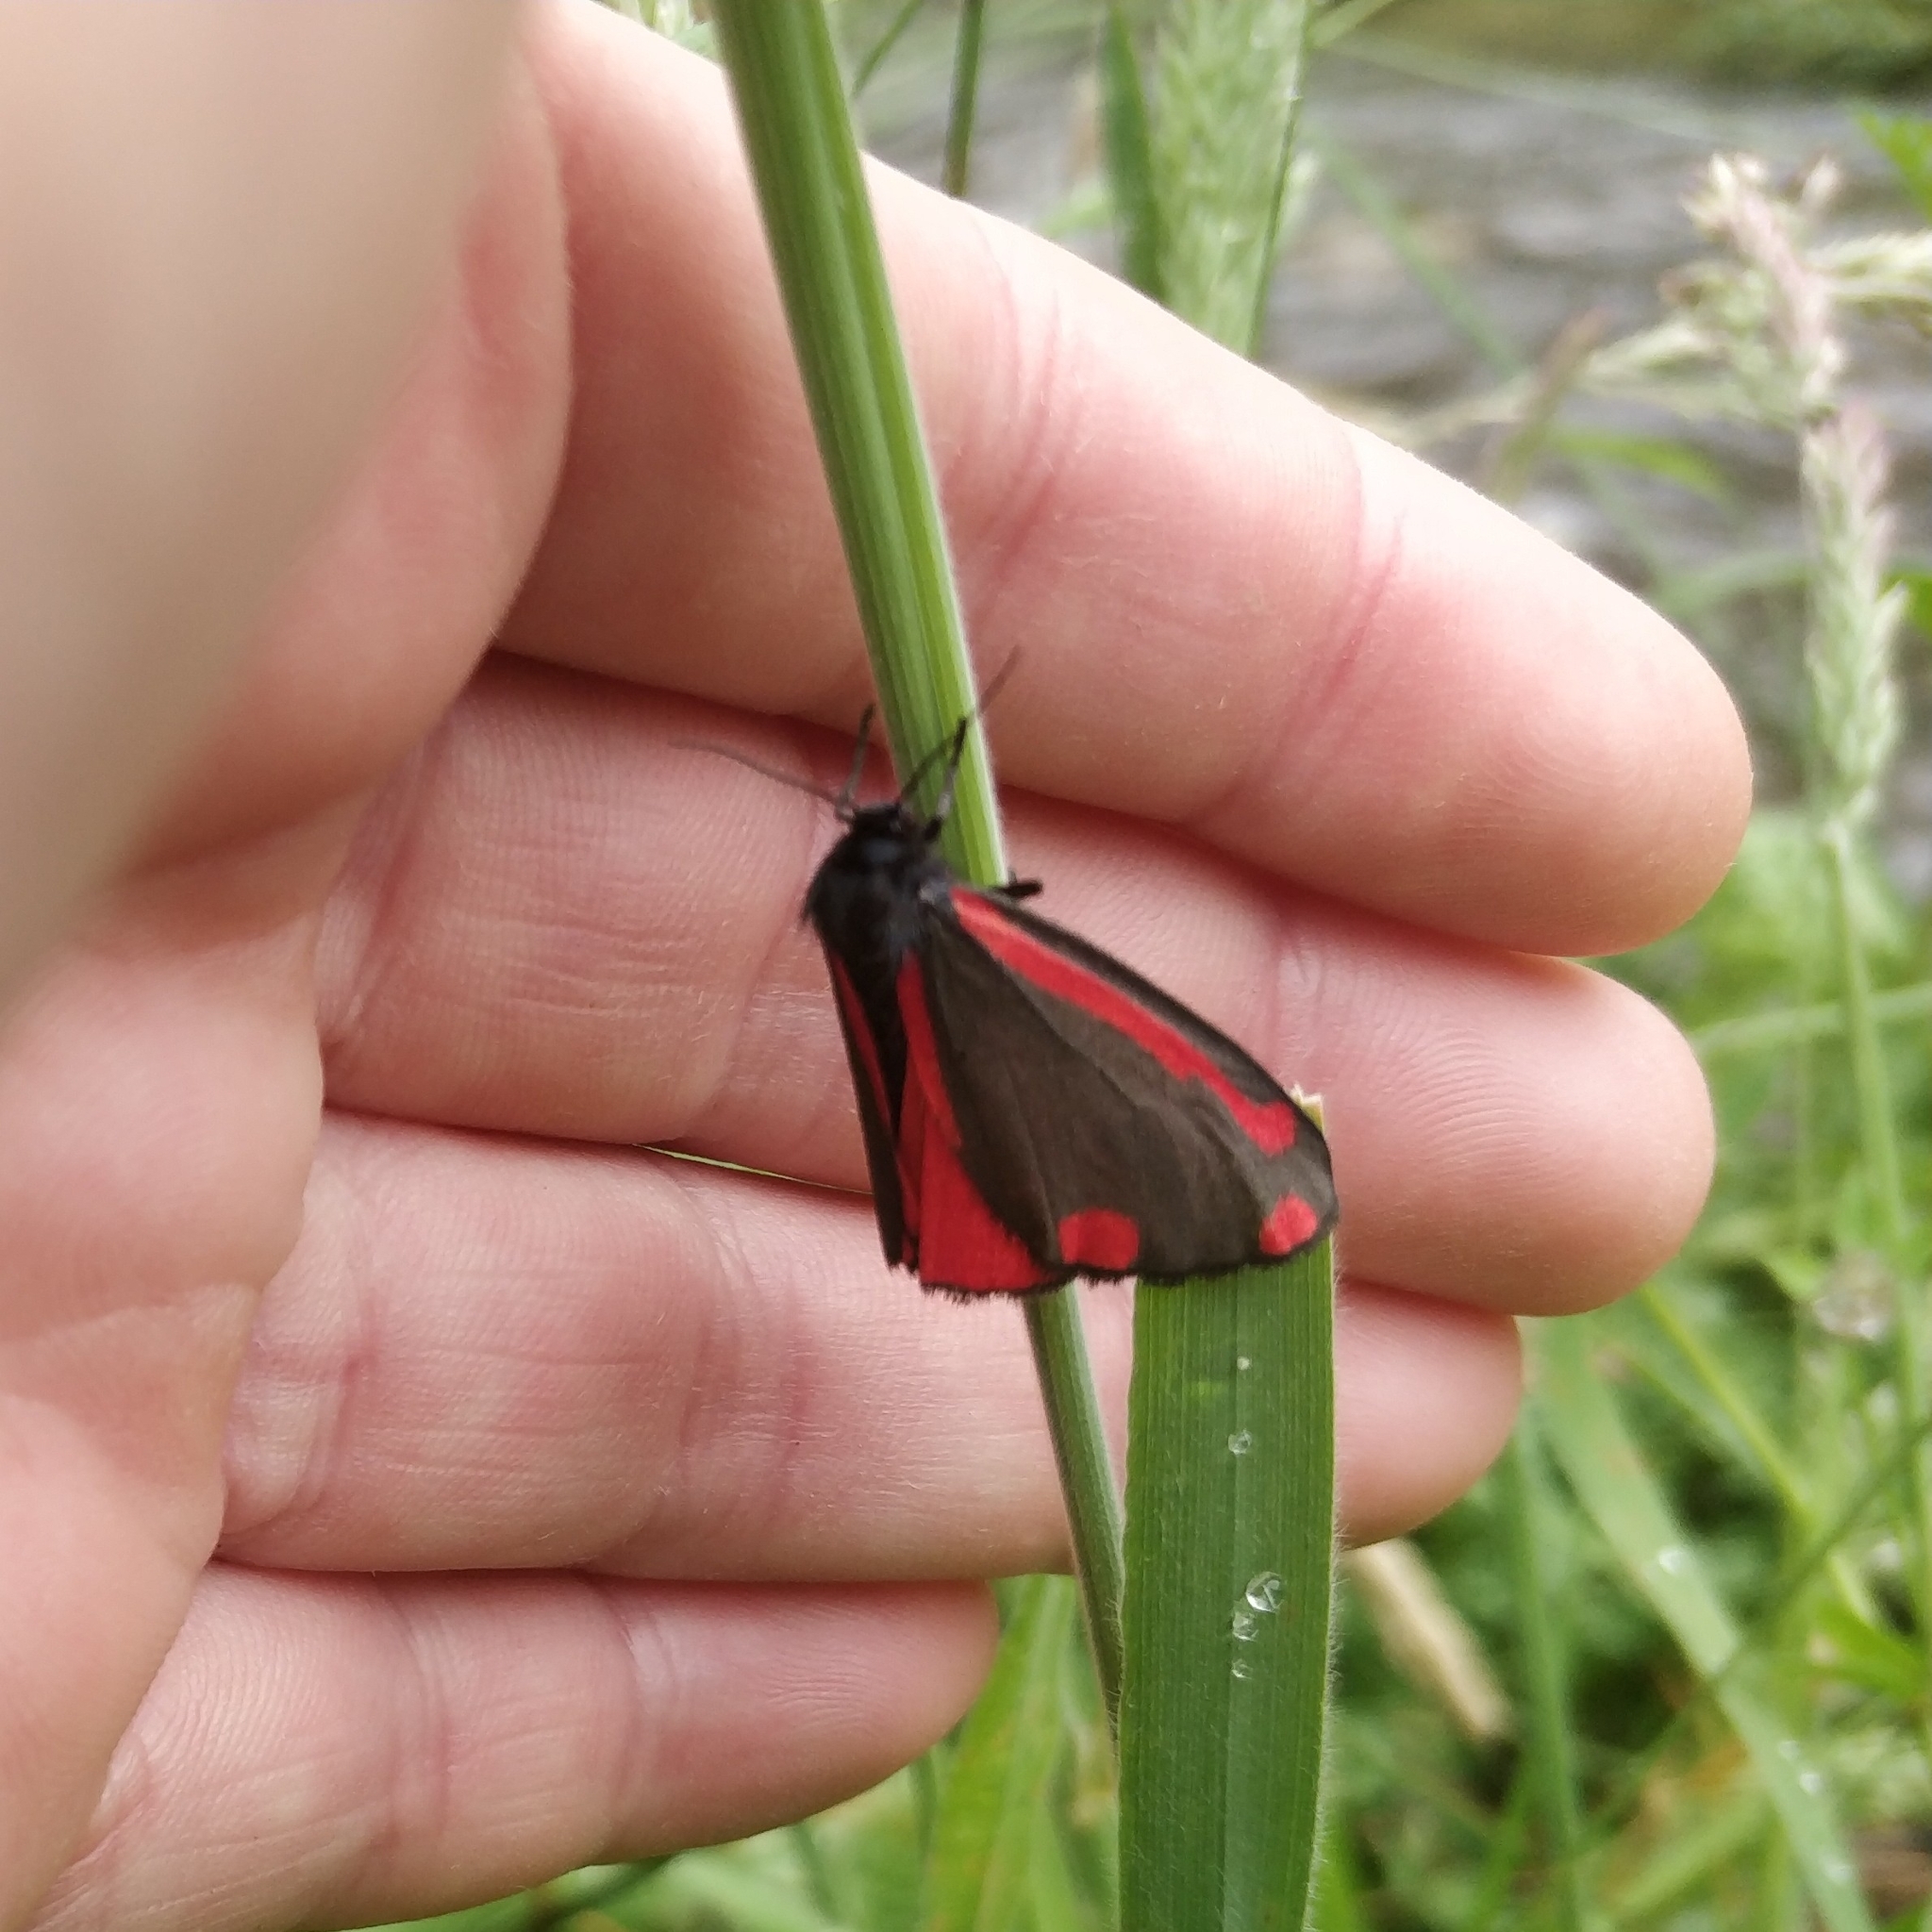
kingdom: Animalia
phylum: Arthropoda
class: Insecta
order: Lepidoptera
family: Erebidae
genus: Tyria
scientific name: Tyria jacobaeae
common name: Cinnabar
